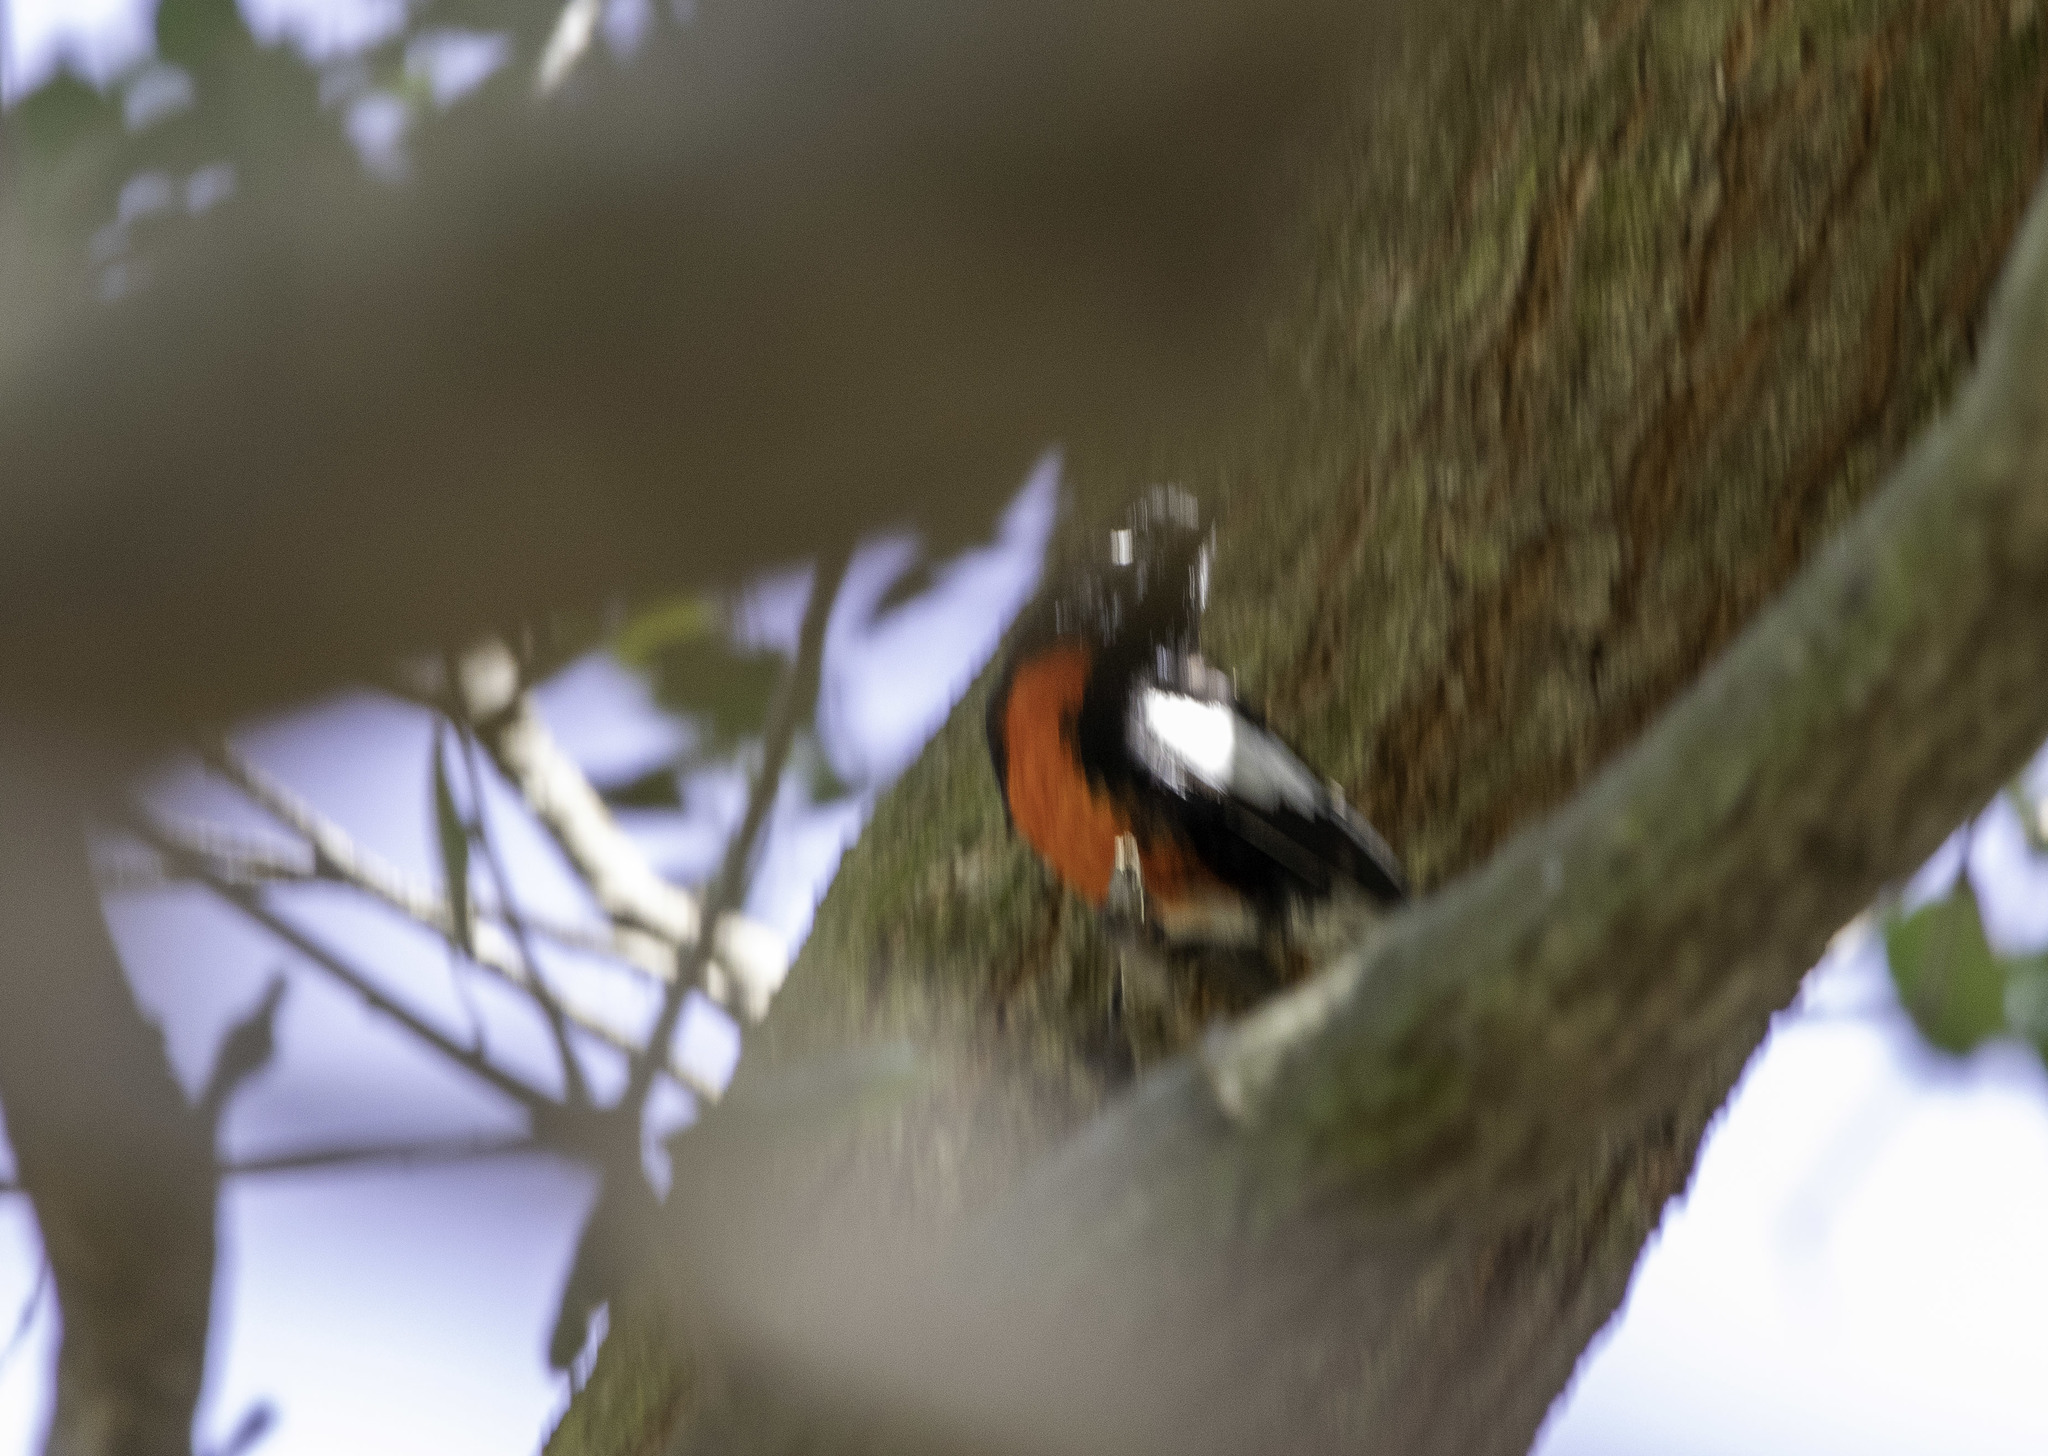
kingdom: Animalia
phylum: Chordata
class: Aves
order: Passeriformes
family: Parulidae
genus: Myioborus
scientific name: Myioborus pictus
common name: Painted whitestart
